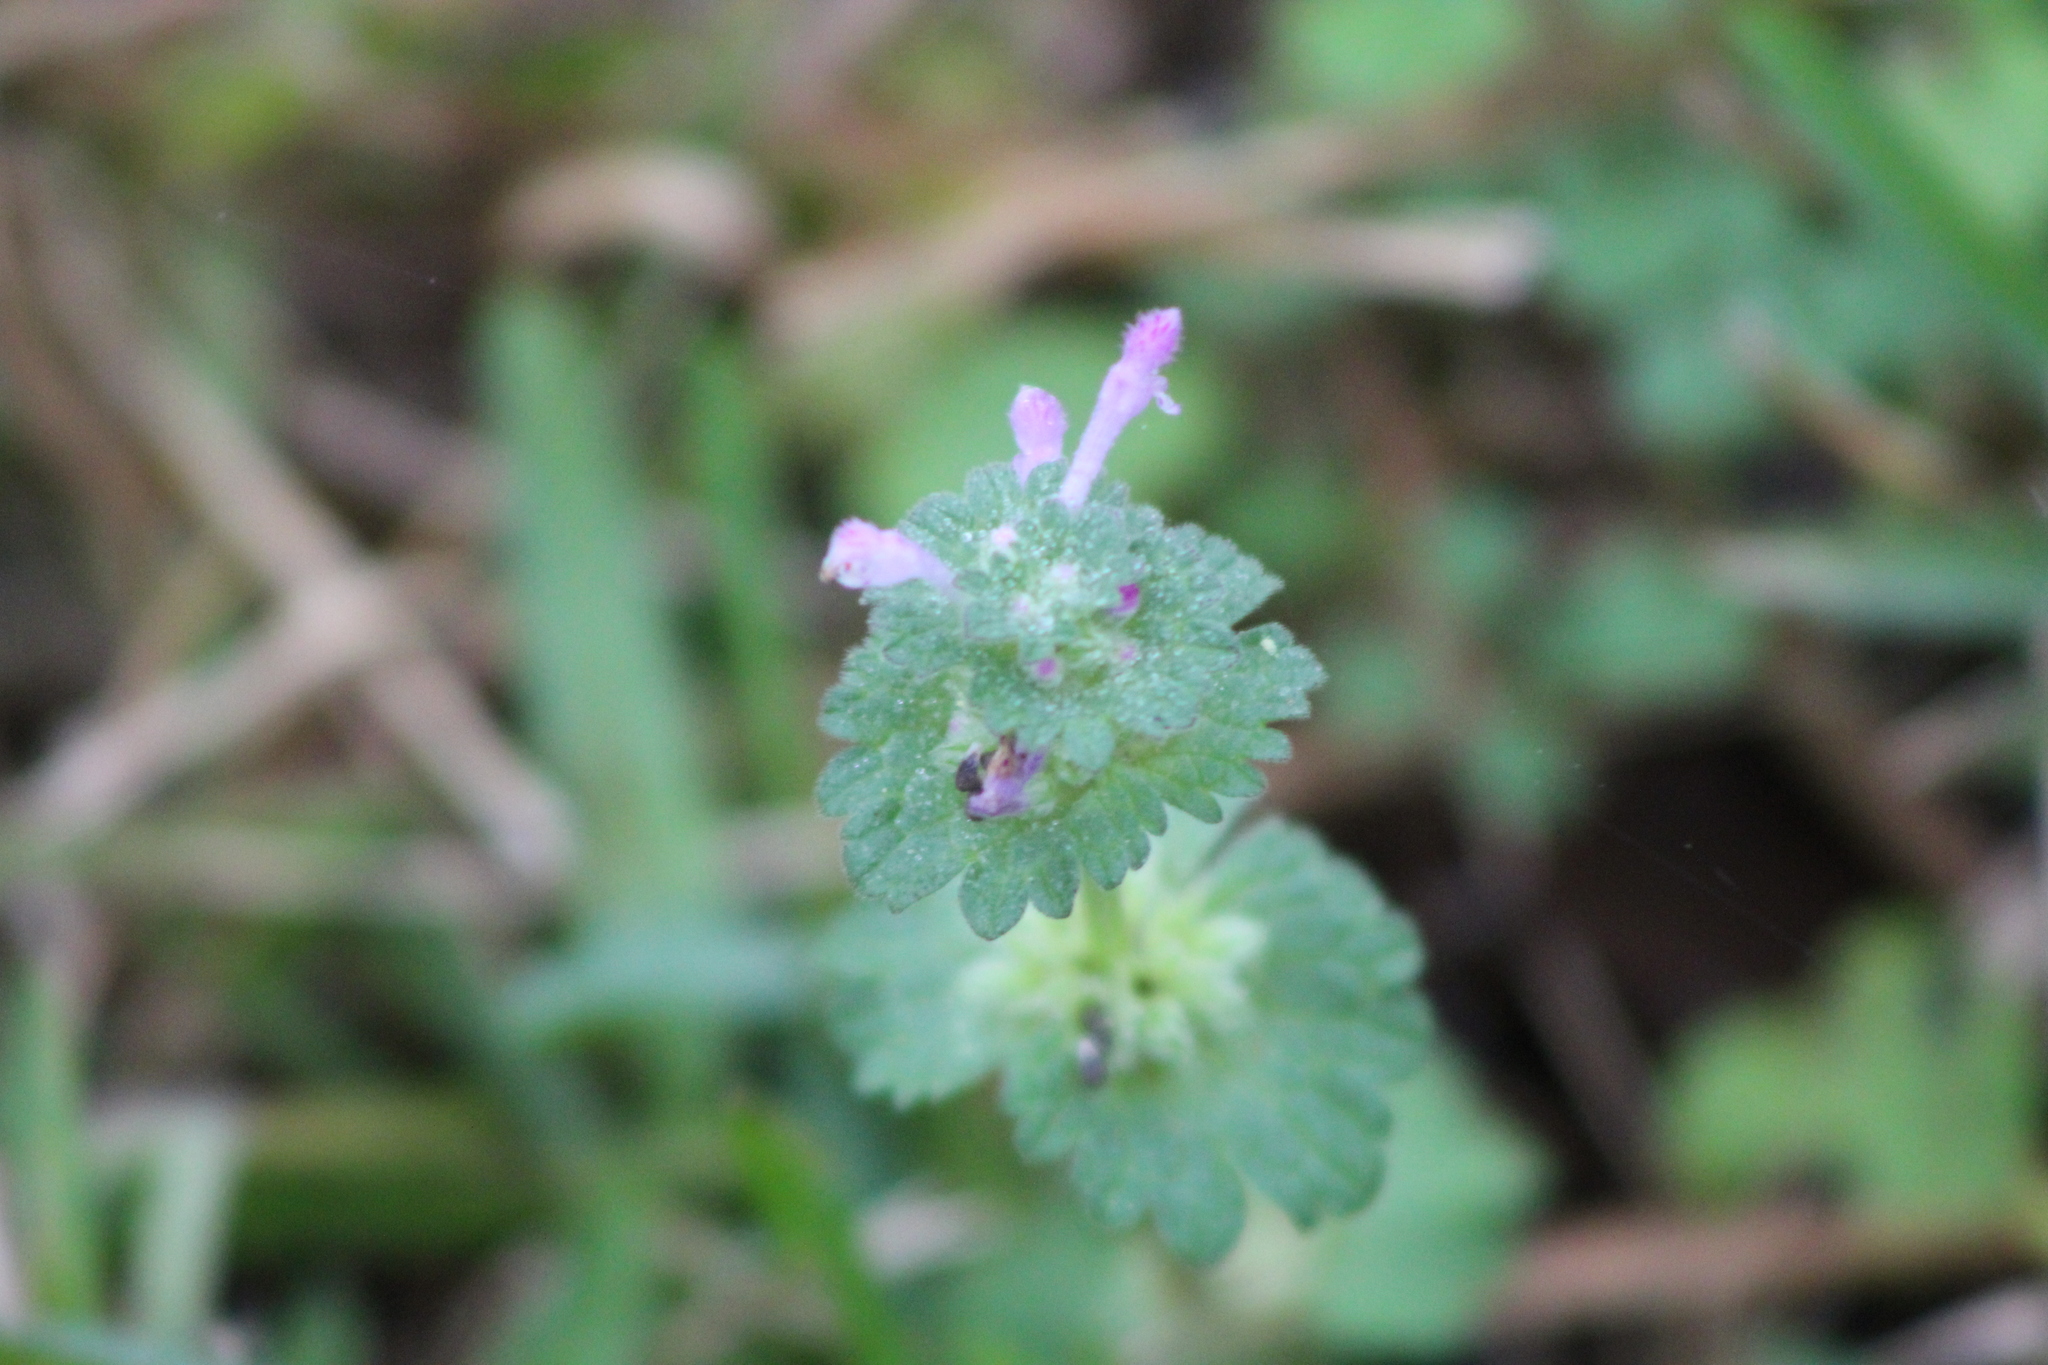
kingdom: Plantae
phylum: Tracheophyta
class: Magnoliopsida
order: Lamiales
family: Lamiaceae
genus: Lamium
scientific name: Lamium amplexicaule
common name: Henbit dead-nettle
